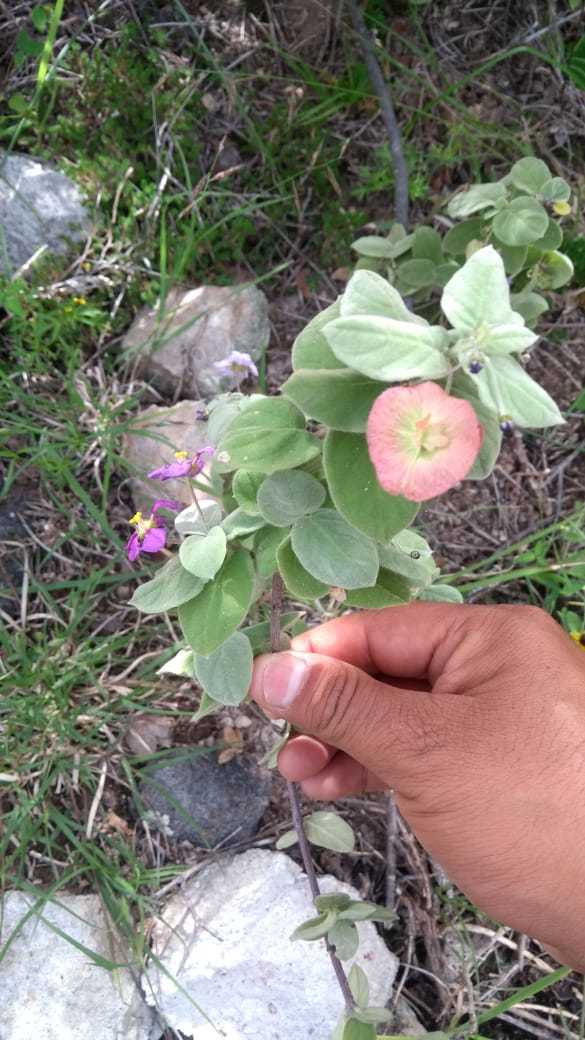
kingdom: Plantae
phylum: Tracheophyta
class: Magnoliopsida
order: Malpighiales
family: Malpighiaceae
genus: Calcicola
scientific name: Calcicola parvifolia
